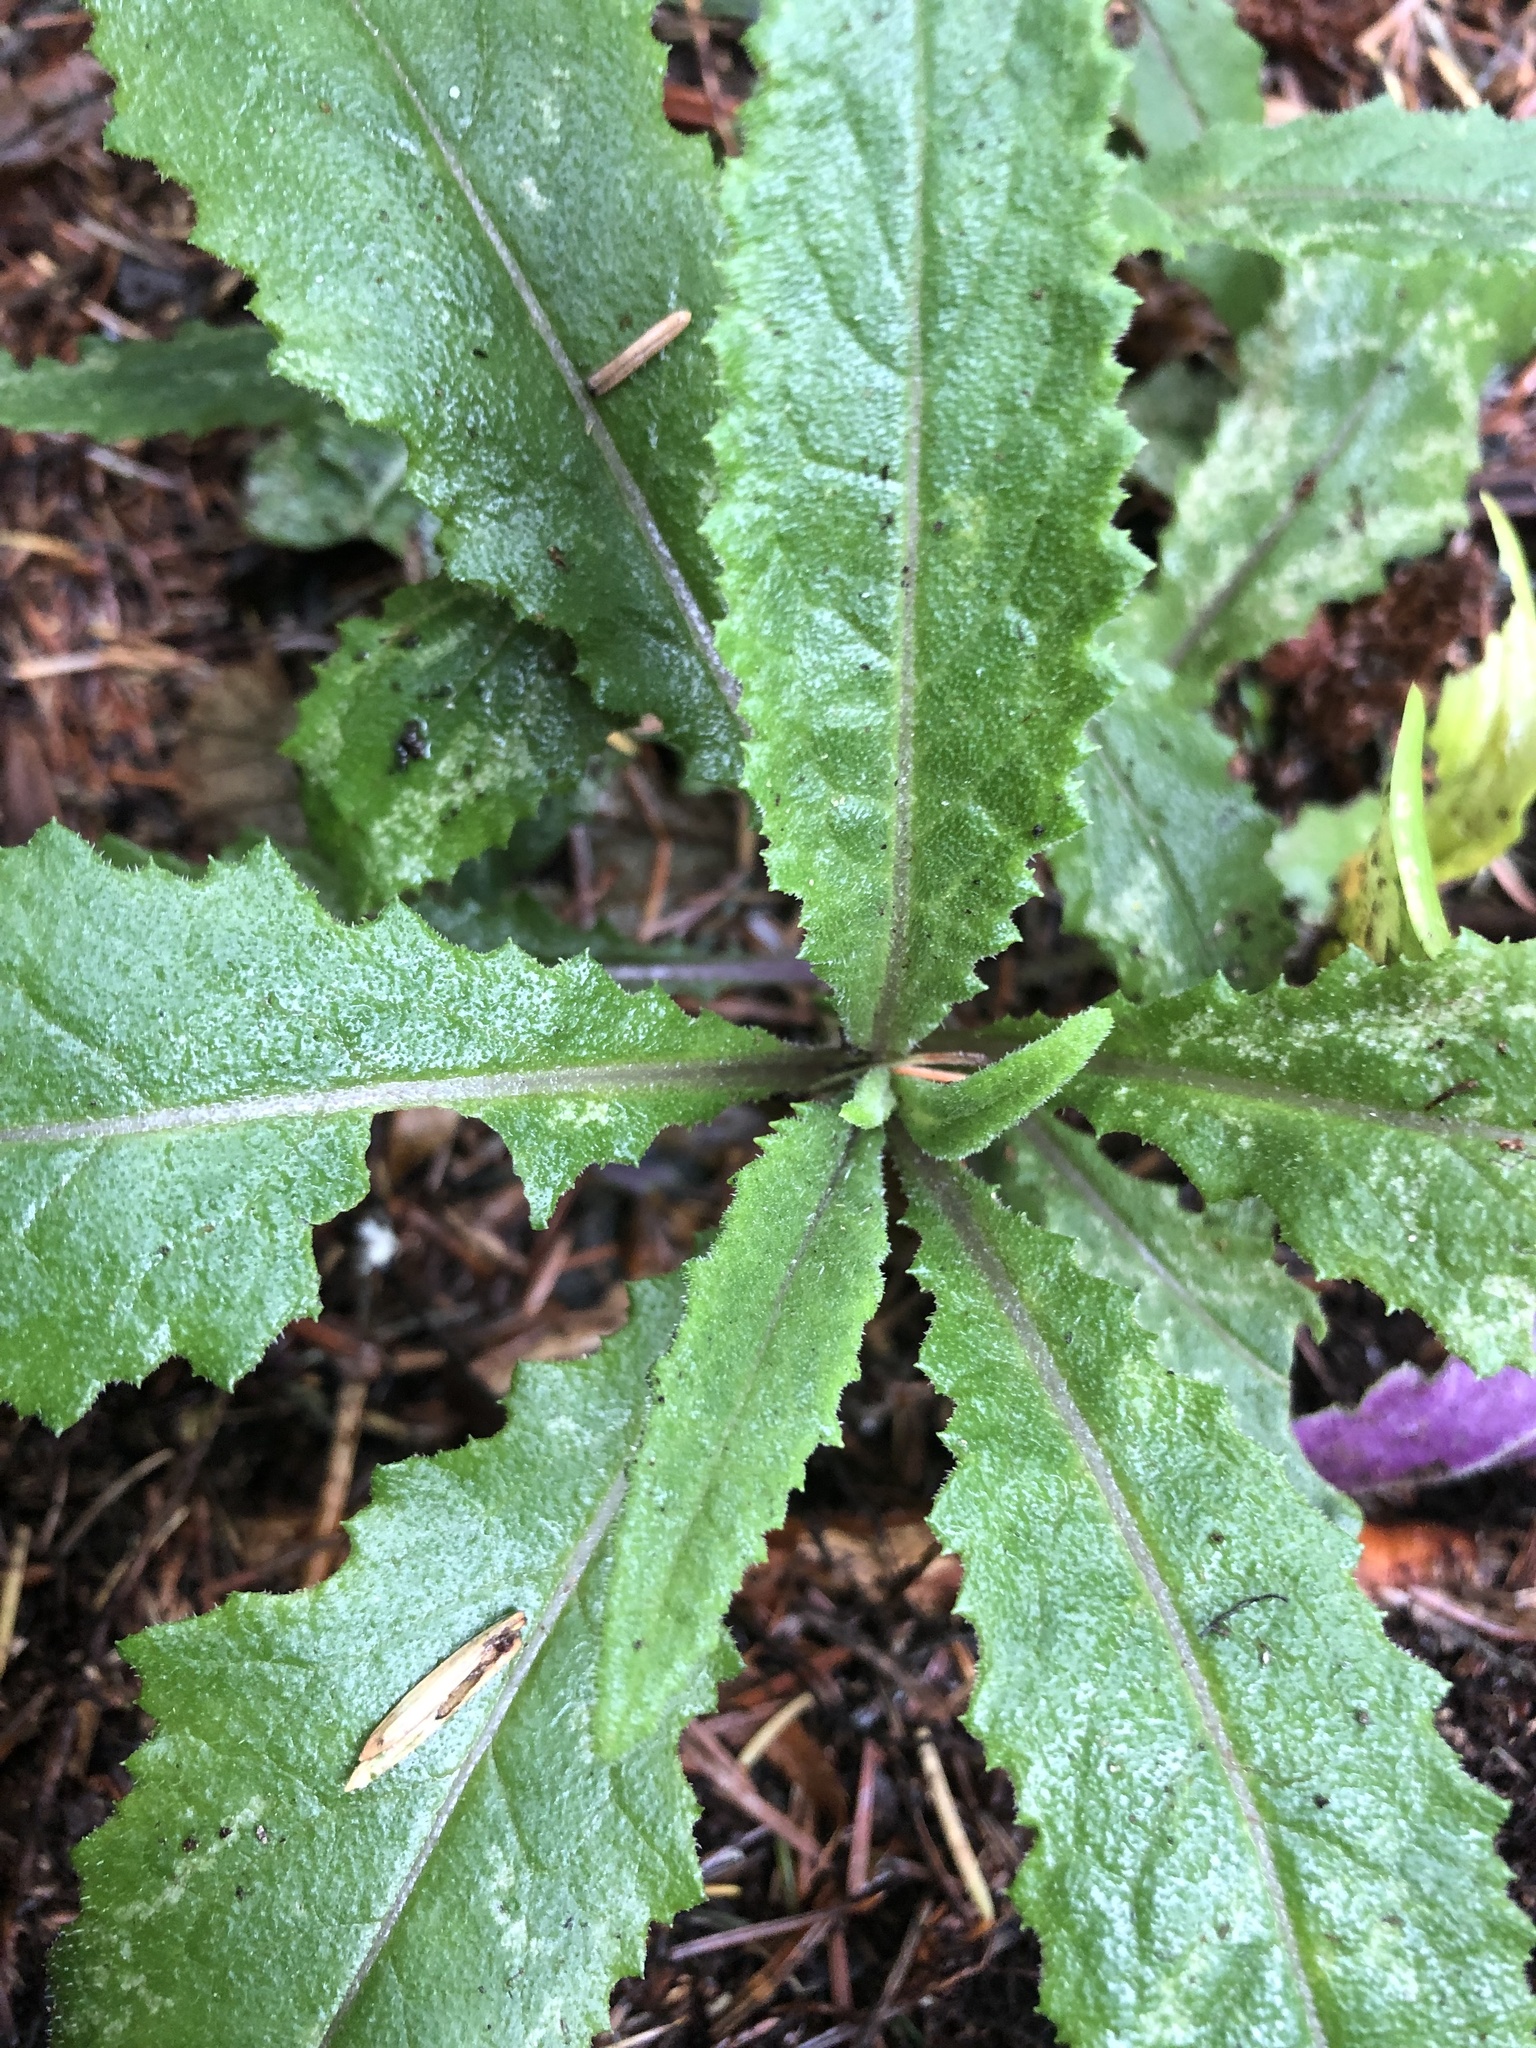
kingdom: Plantae
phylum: Tracheophyta
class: Magnoliopsida
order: Asterales
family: Asteraceae
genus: Senecio
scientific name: Senecio minimus
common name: Toothed fireweed
